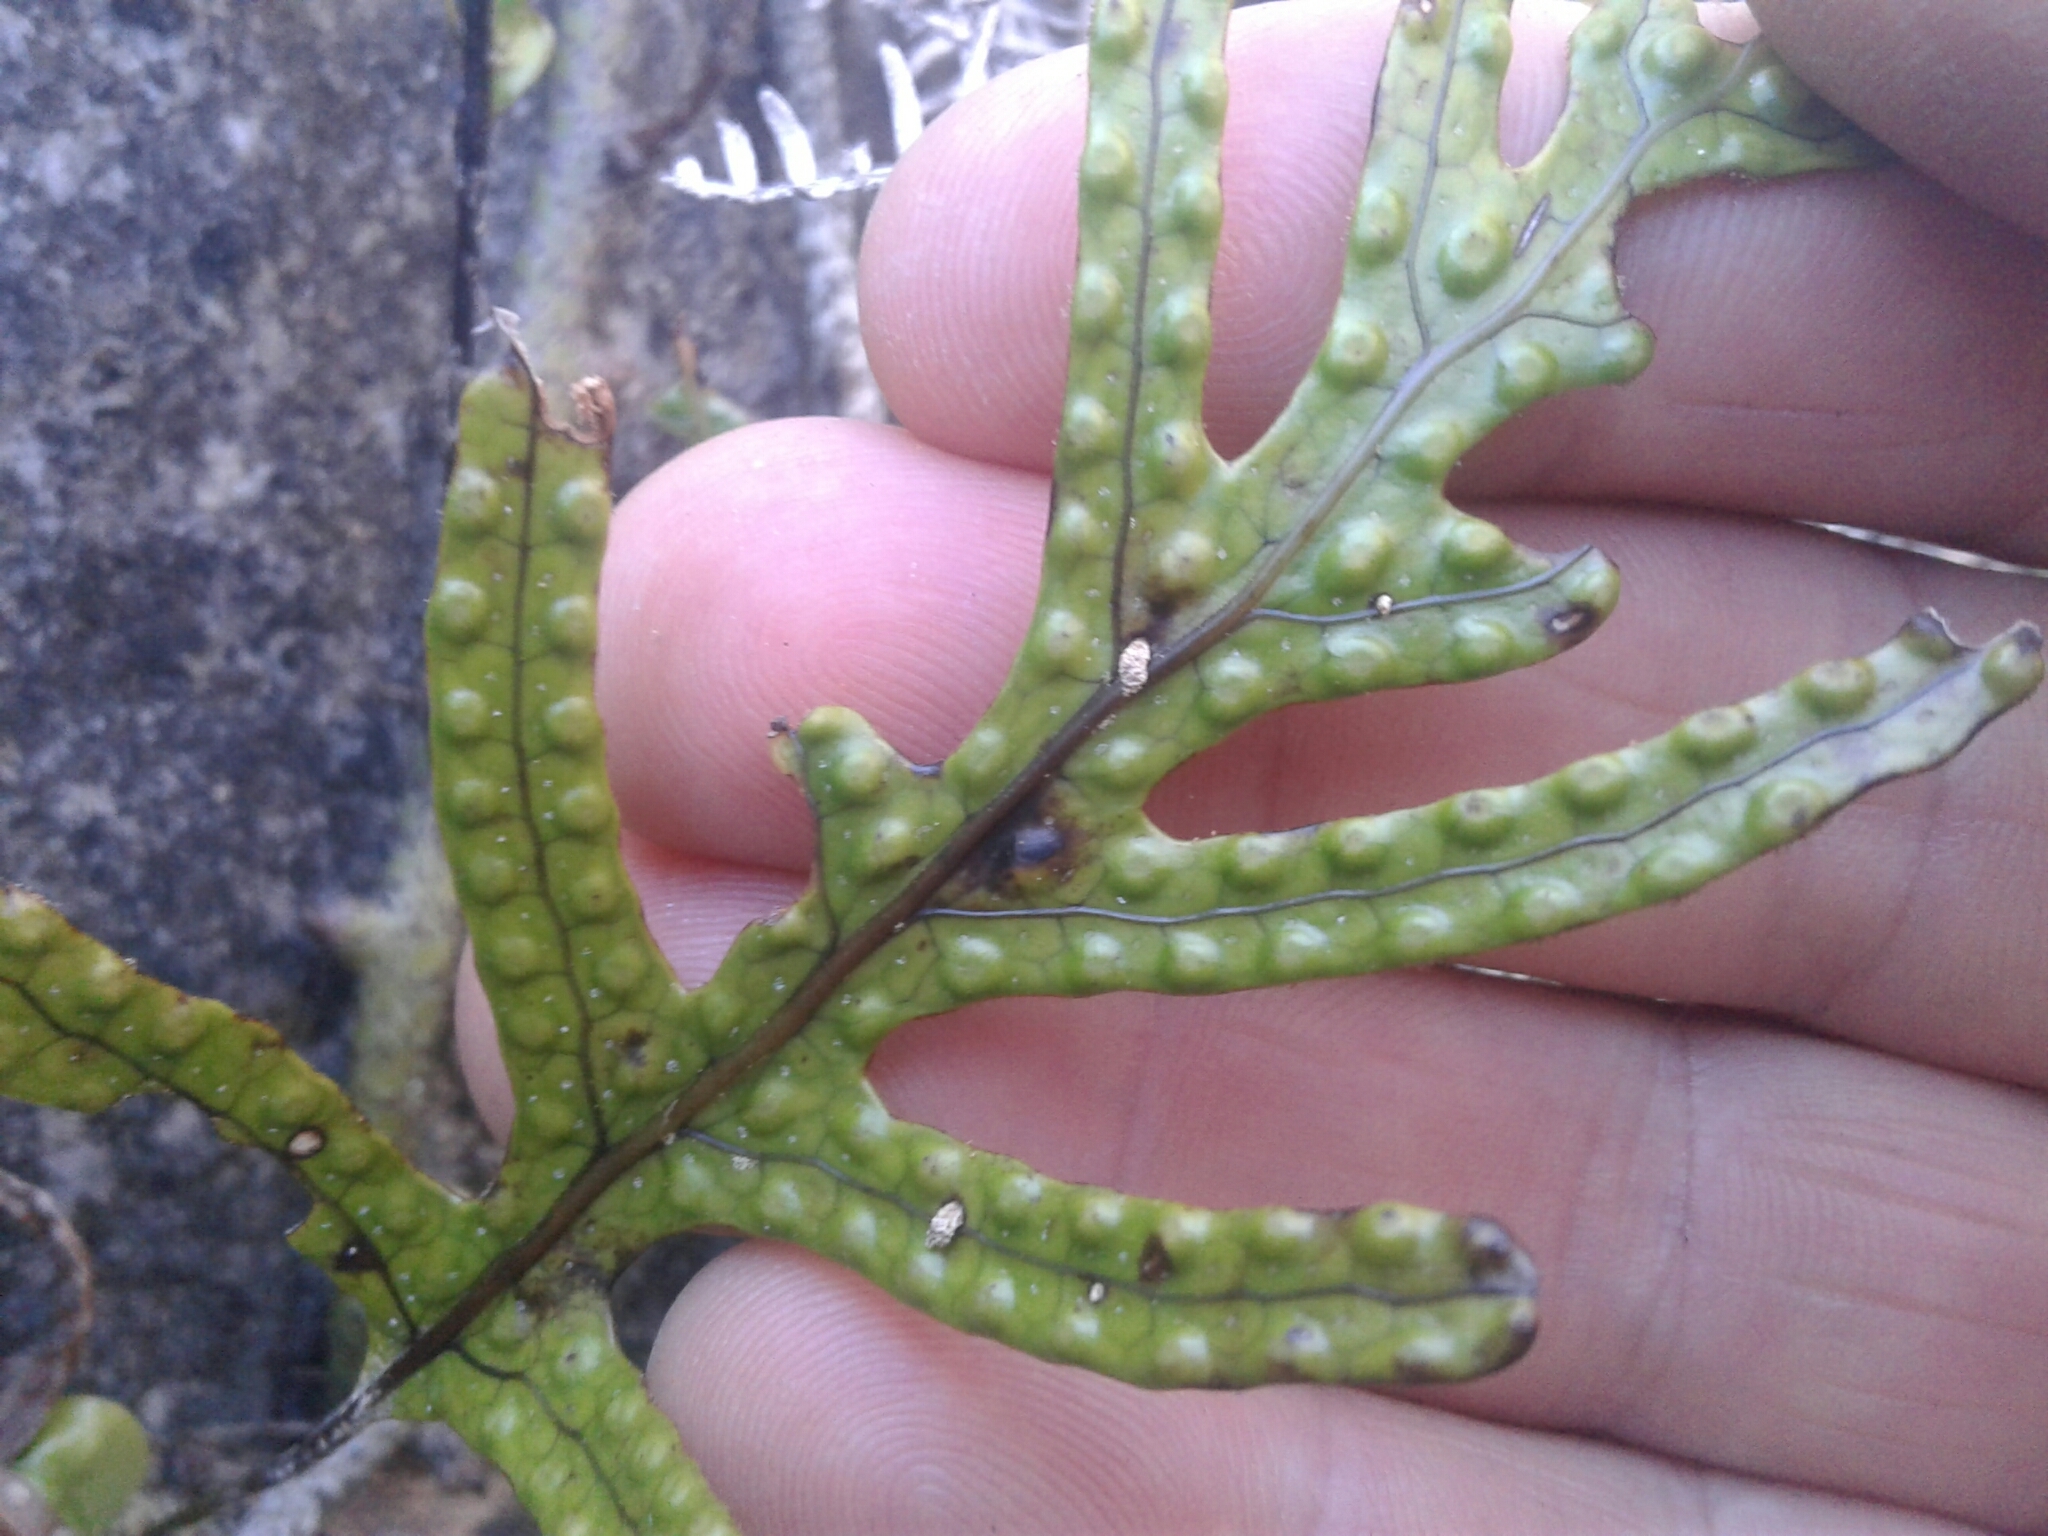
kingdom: Plantae
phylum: Tracheophyta
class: Polypodiopsida
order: Polypodiales
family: Polypodiaceae
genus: Lecanopteris
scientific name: Lecanopteris pustulata
